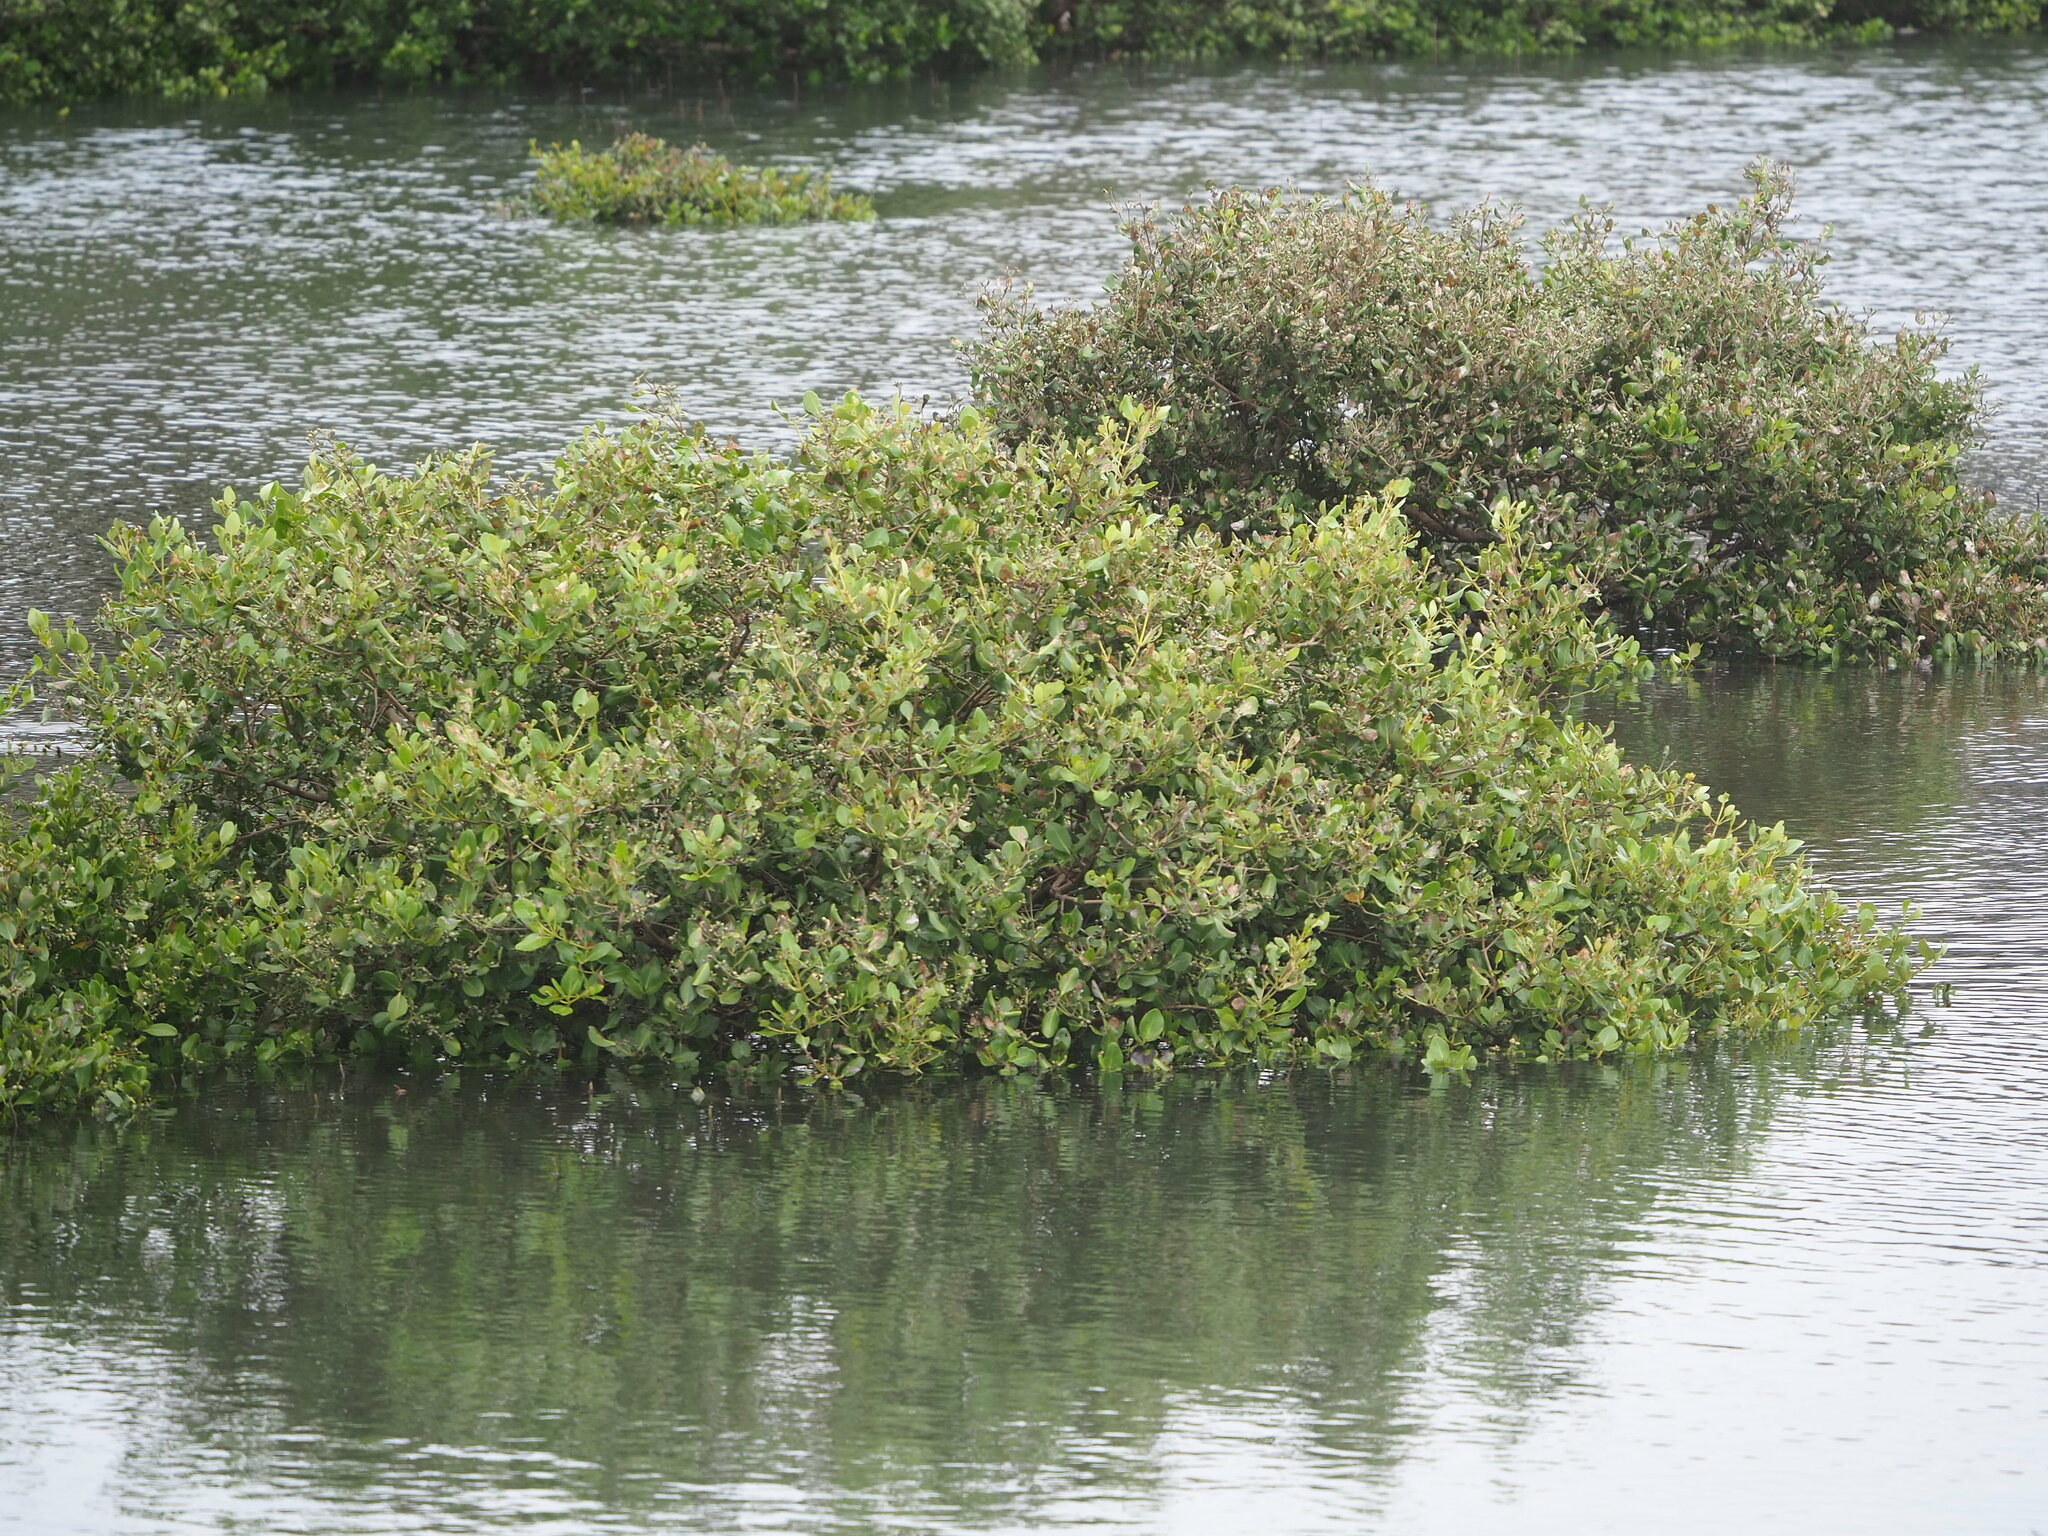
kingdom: Plantae
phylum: Tracheophyta
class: Magnoliopsida
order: Lamiales
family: Acanthaceae
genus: Avicennia
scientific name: Avicennia marina
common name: Gray mangrove
